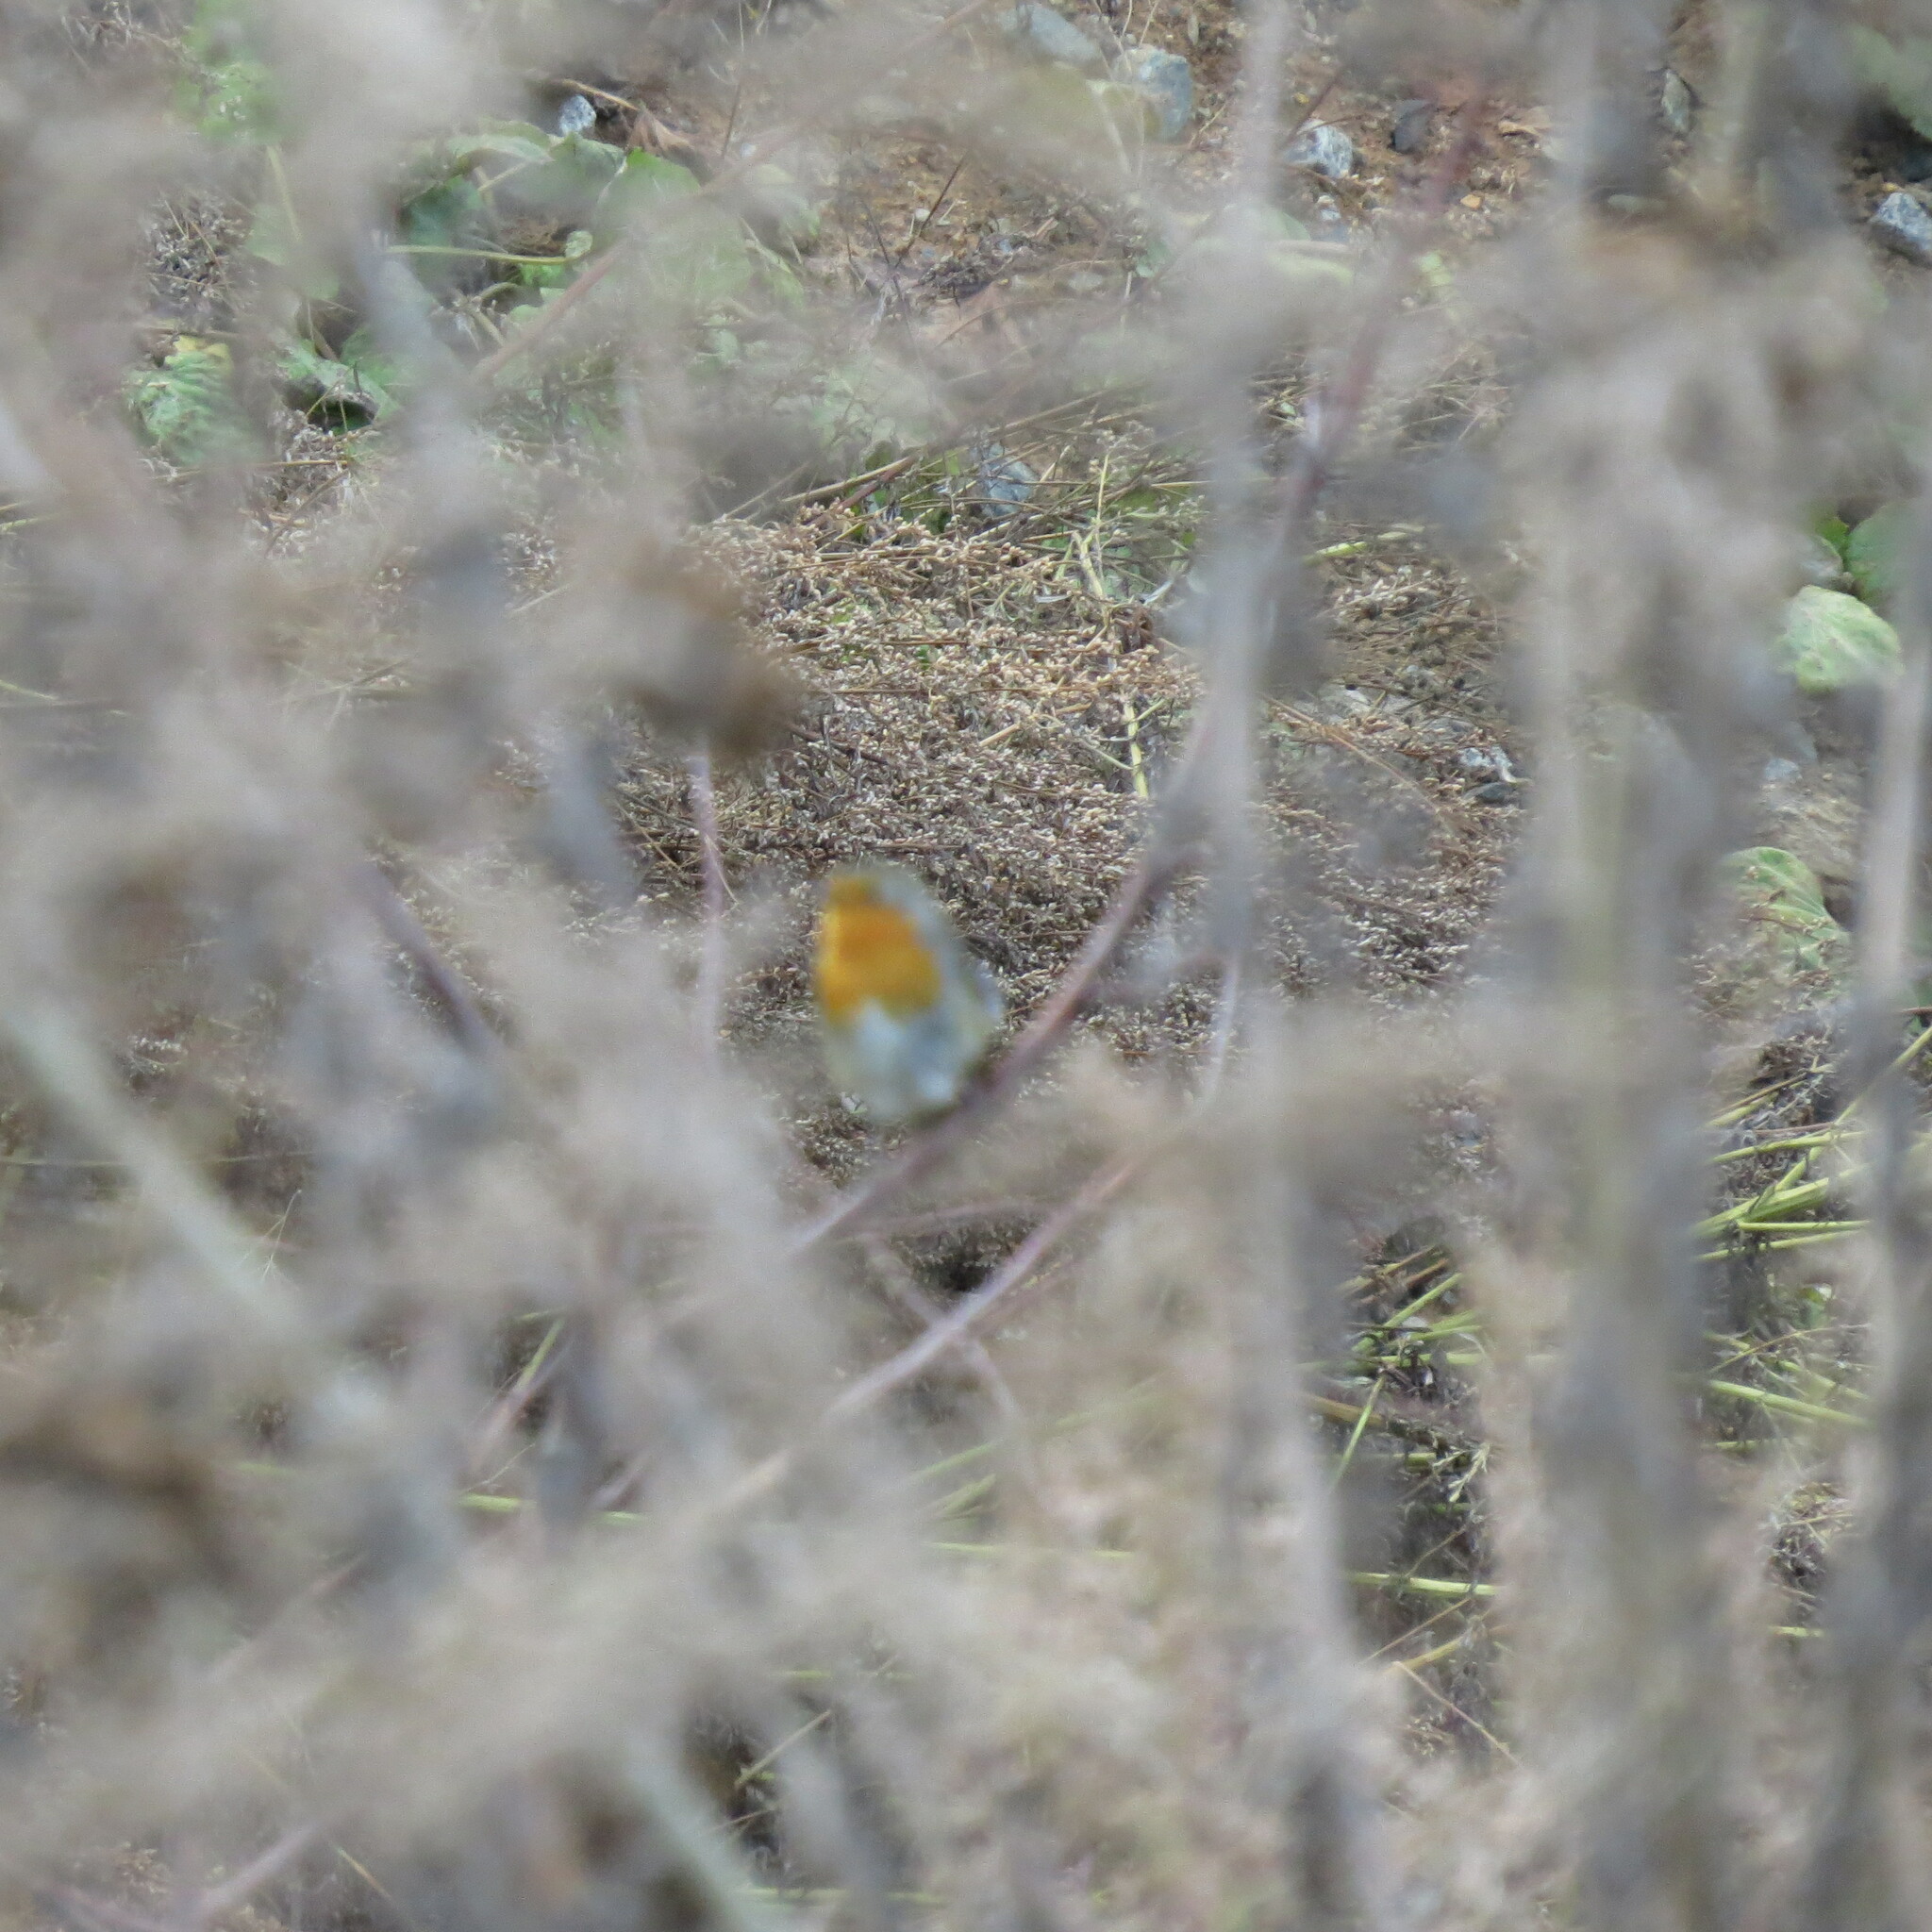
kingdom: Animalia
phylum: Chordata
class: Aves
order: Passeriformes
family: Muscicapidae
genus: Erithacus
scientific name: Erithacus rubecula
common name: European robin
